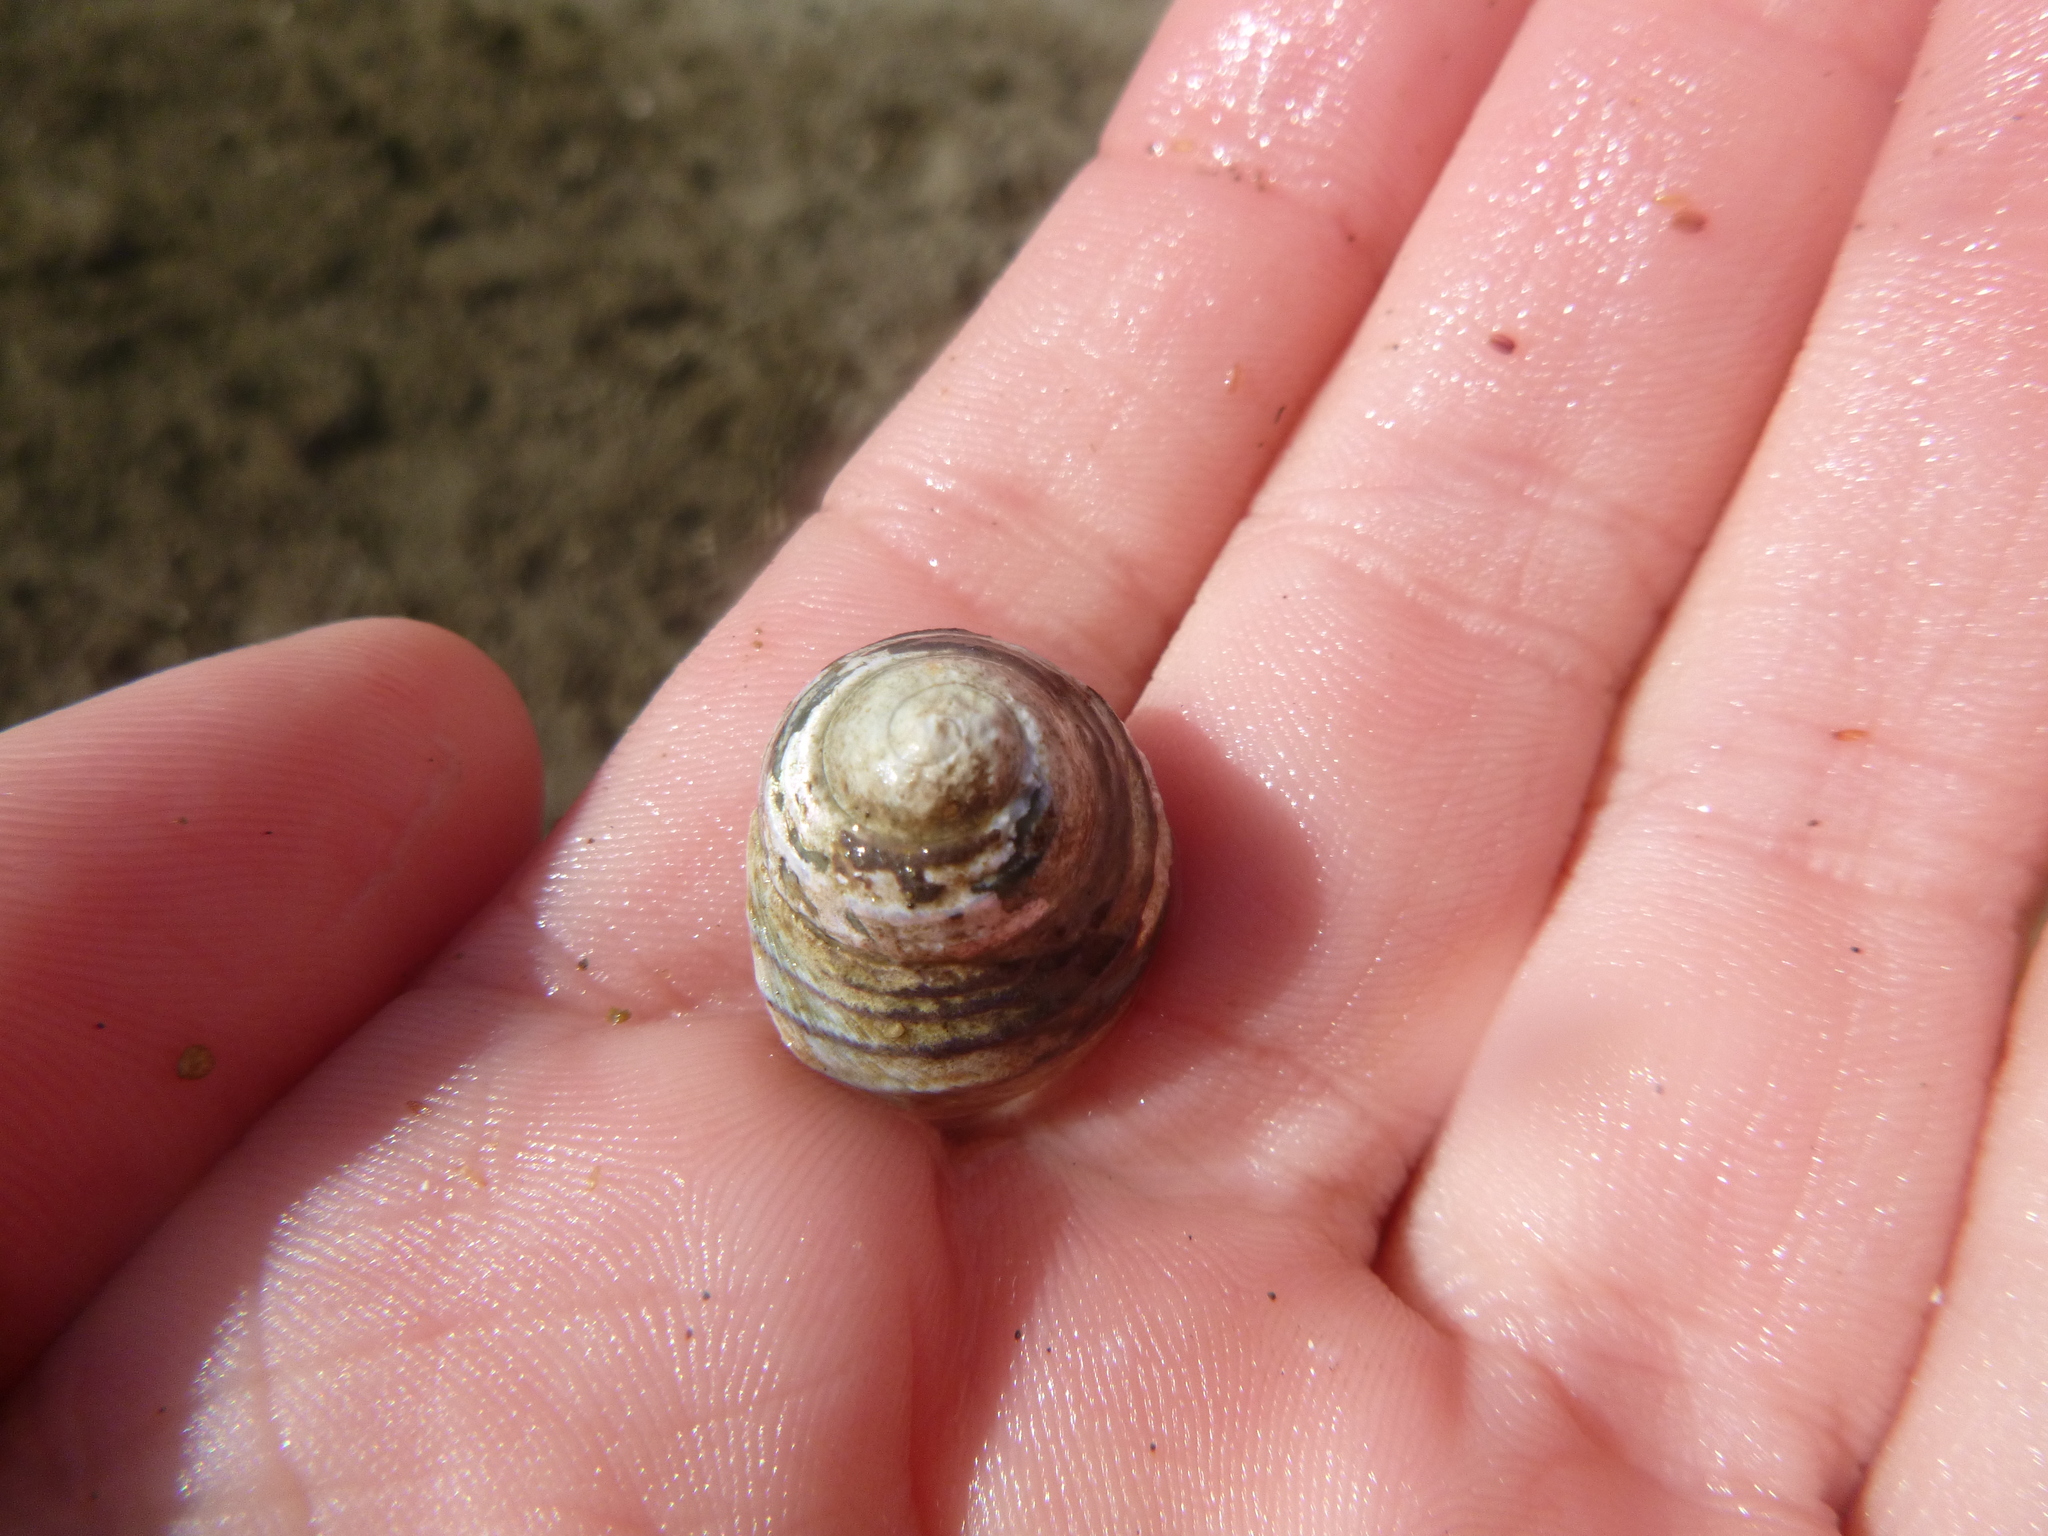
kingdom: Animalia
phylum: Mollusca
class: Gastropoda
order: Trochida
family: Trochidae
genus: Diloma
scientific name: Diloma subrostratum
